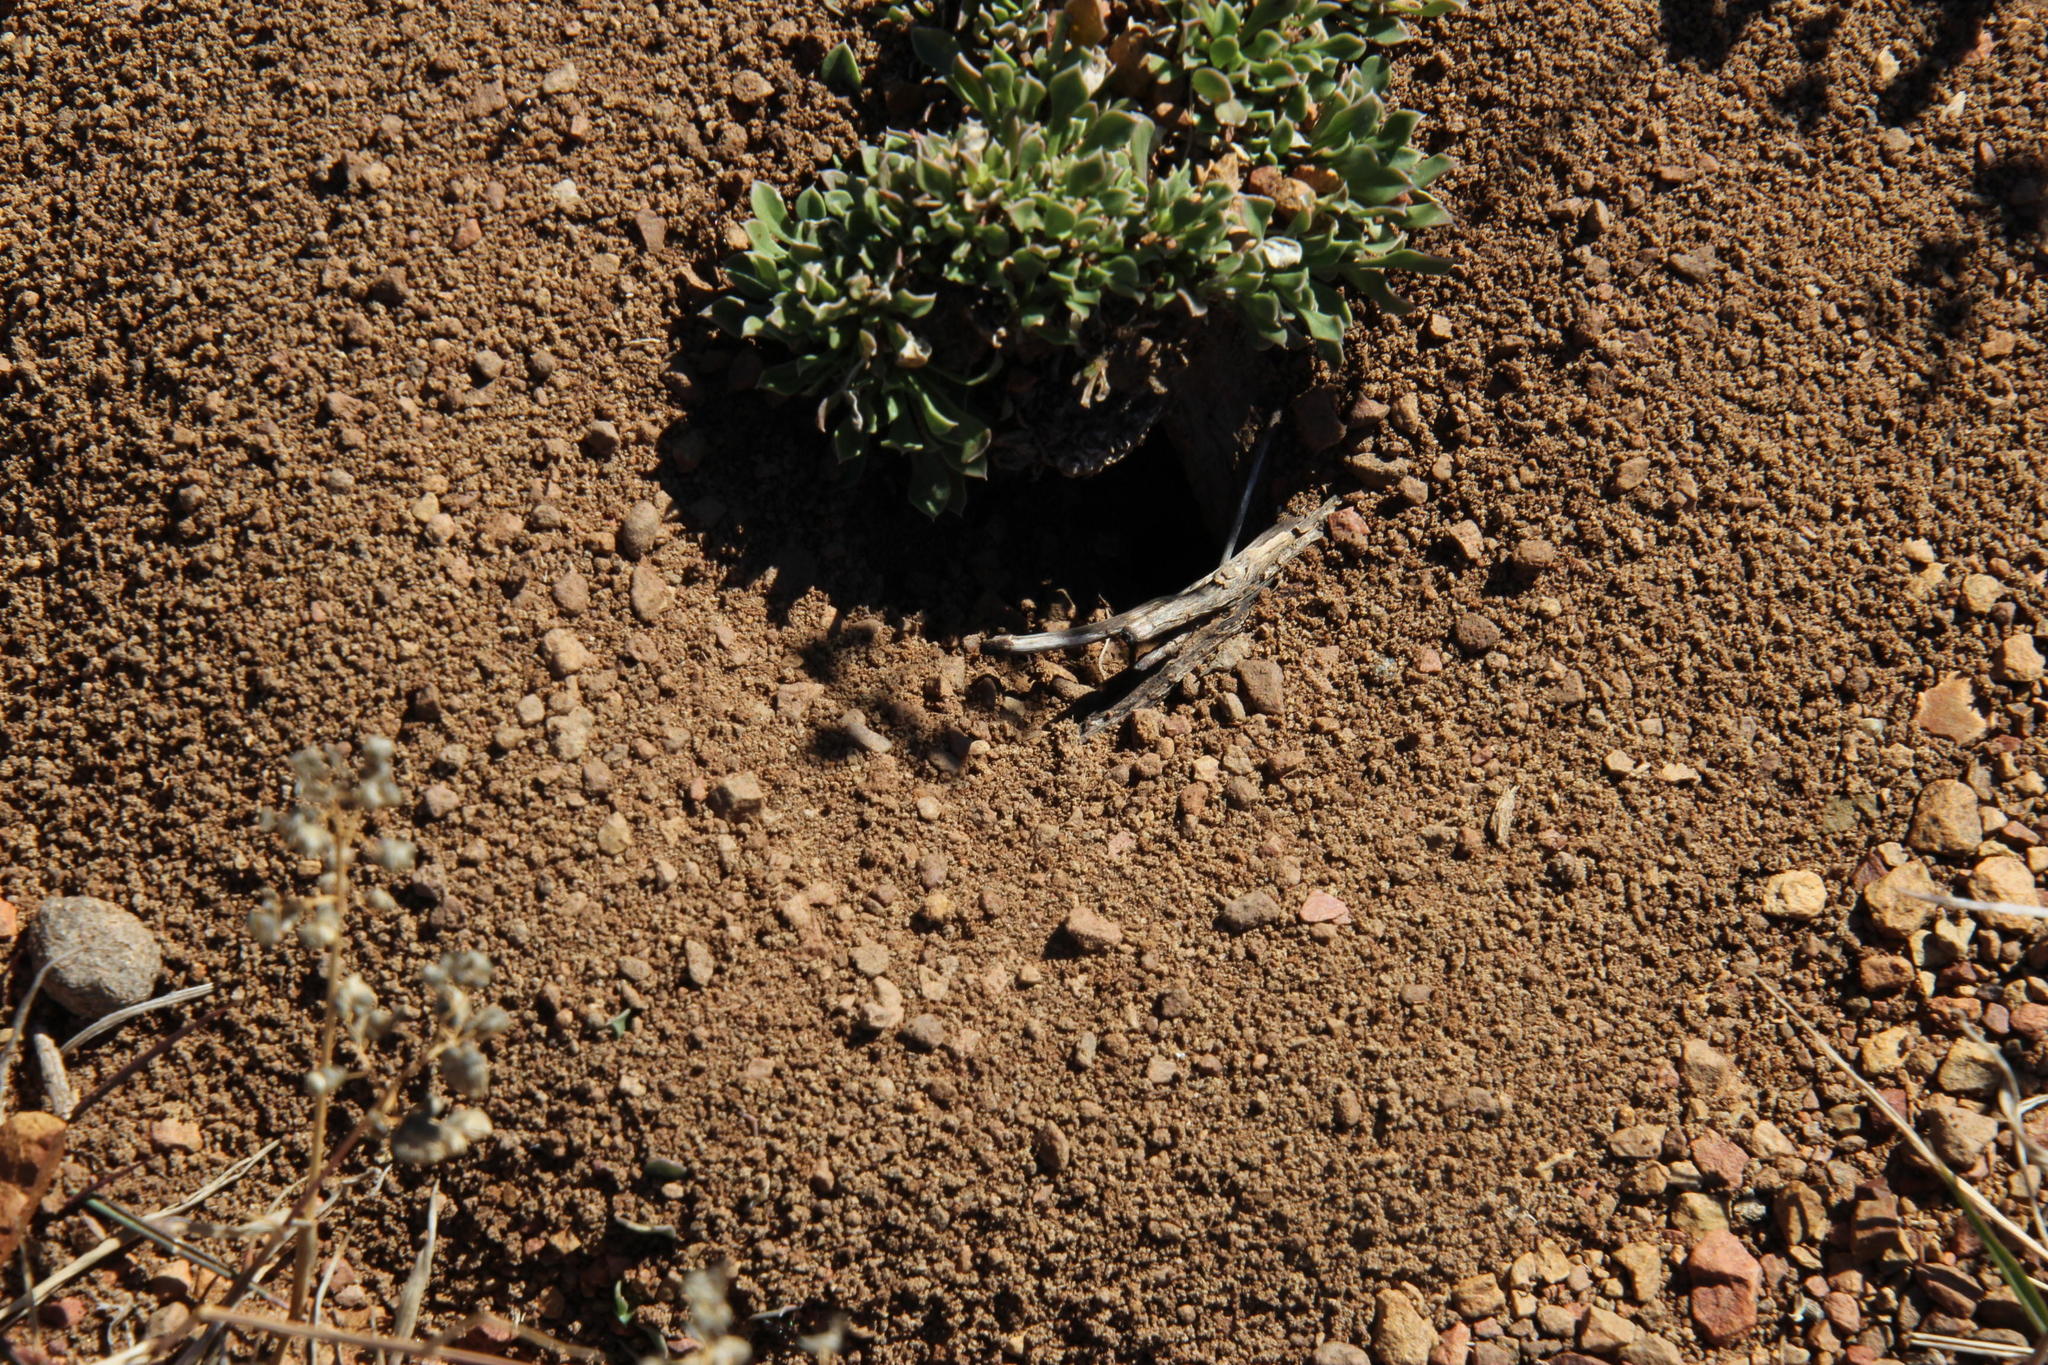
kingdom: Animalia
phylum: Arthropoda
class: Insecta
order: Hymenoptera
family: Formicidae
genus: Anoplolepis
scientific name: Anoplolepis steingroeveri
